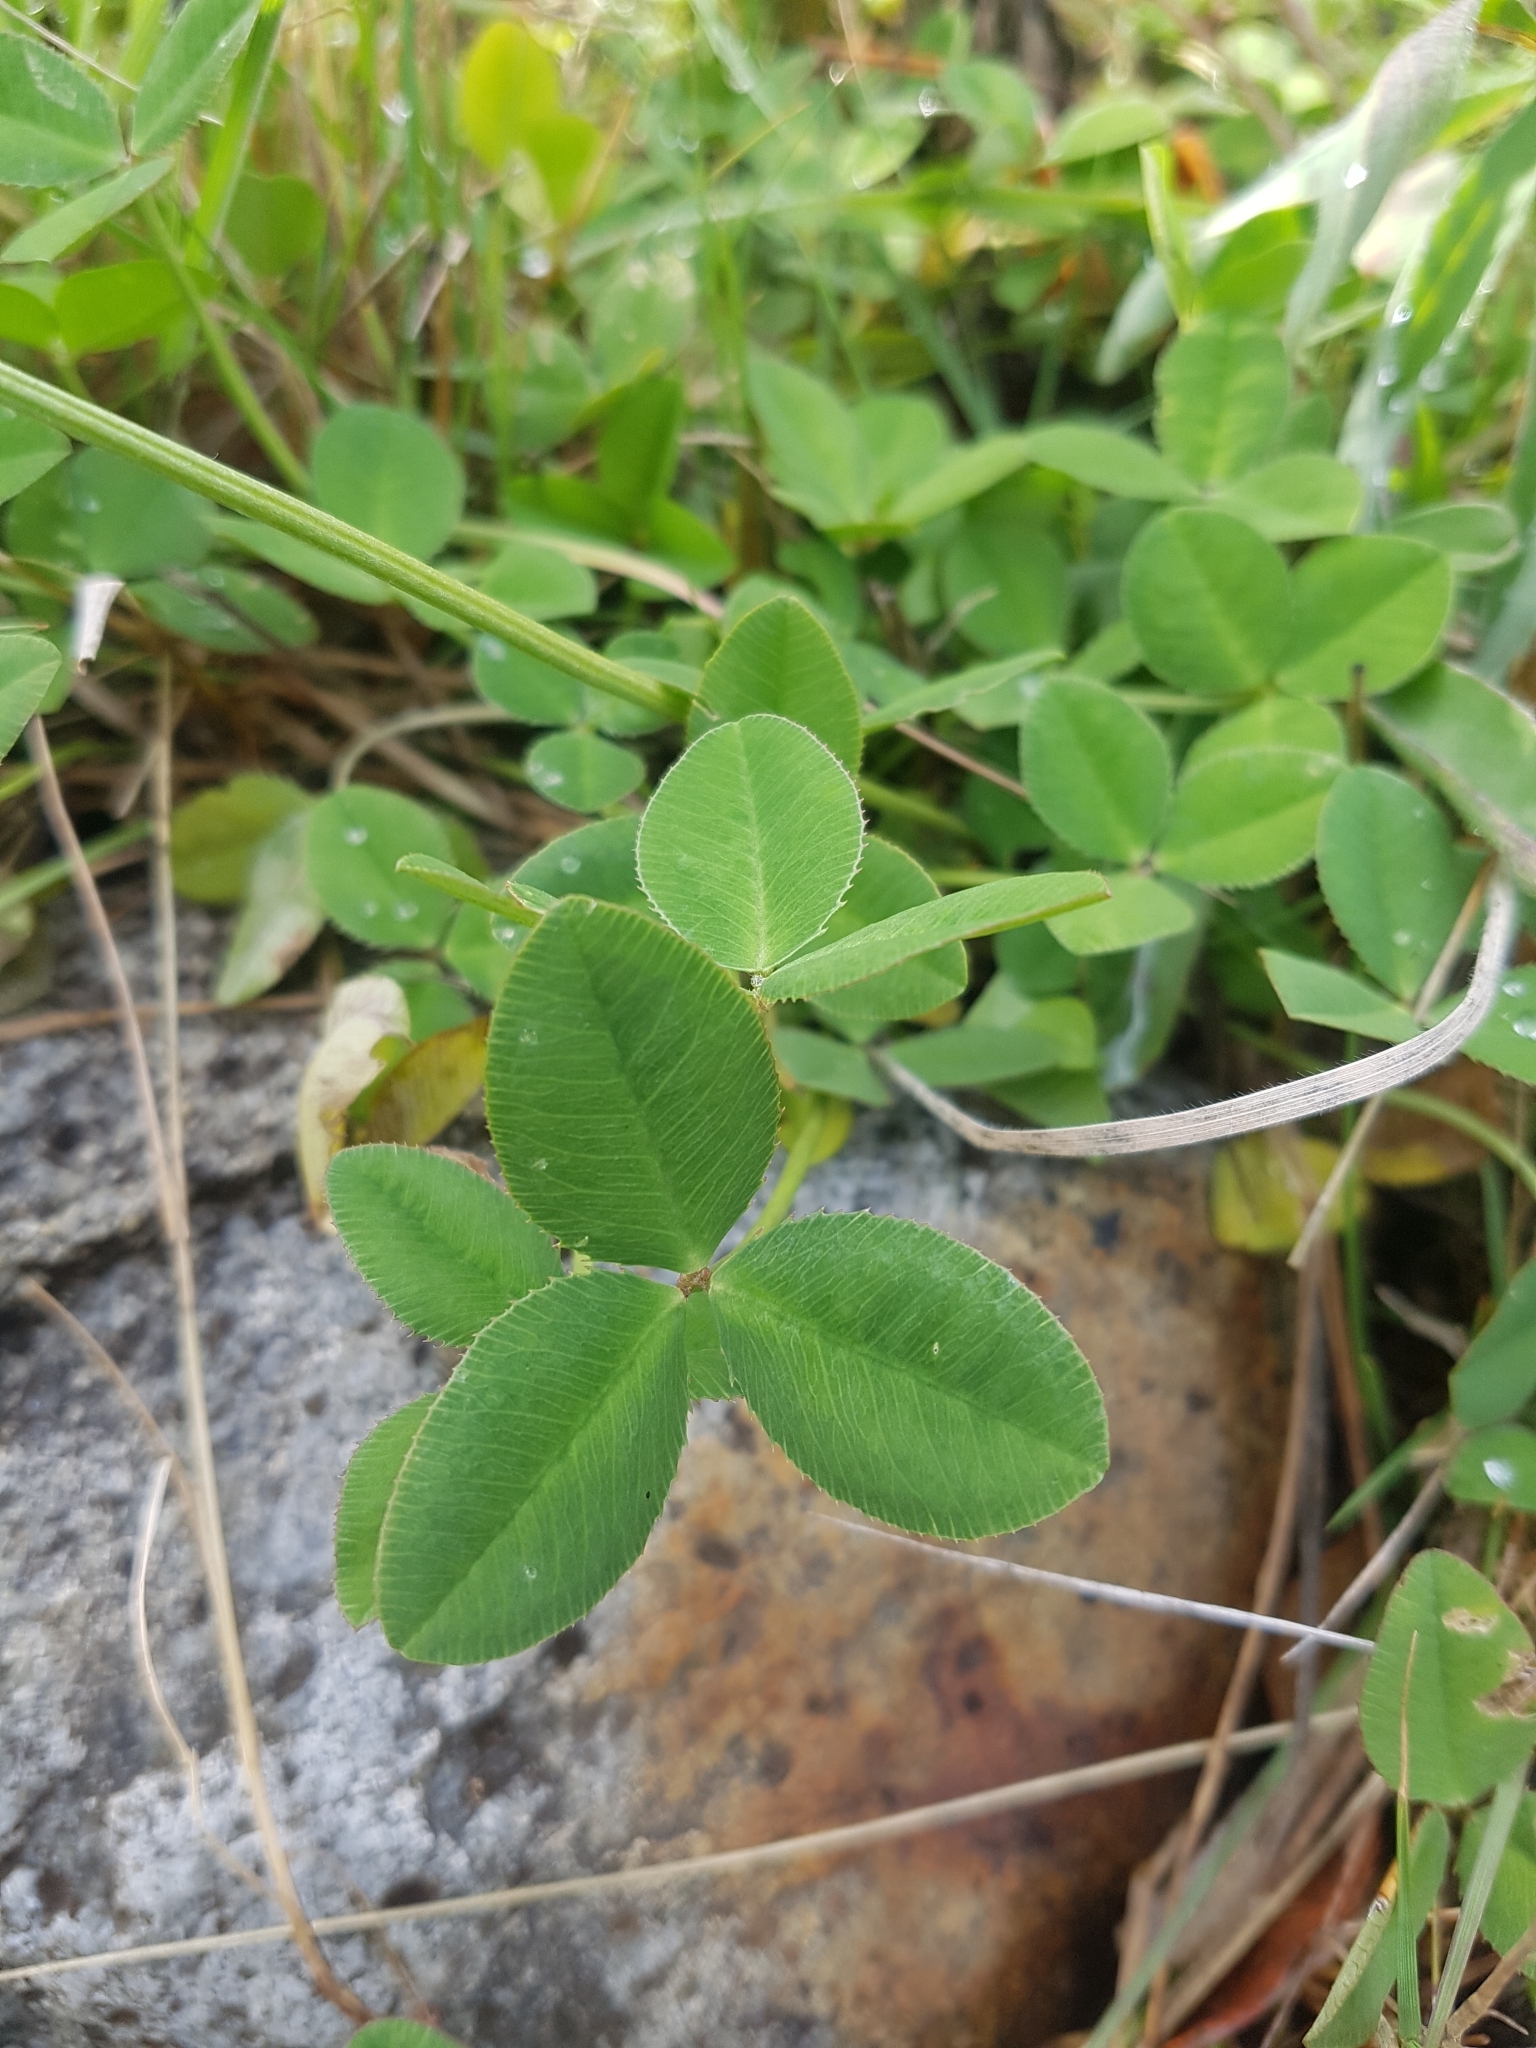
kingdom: Plantae
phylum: Tracheophyta
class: Magnoliopsida
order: Fabales
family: Fabaceae
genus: Trifolium
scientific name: Trifolium repens
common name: White clover
